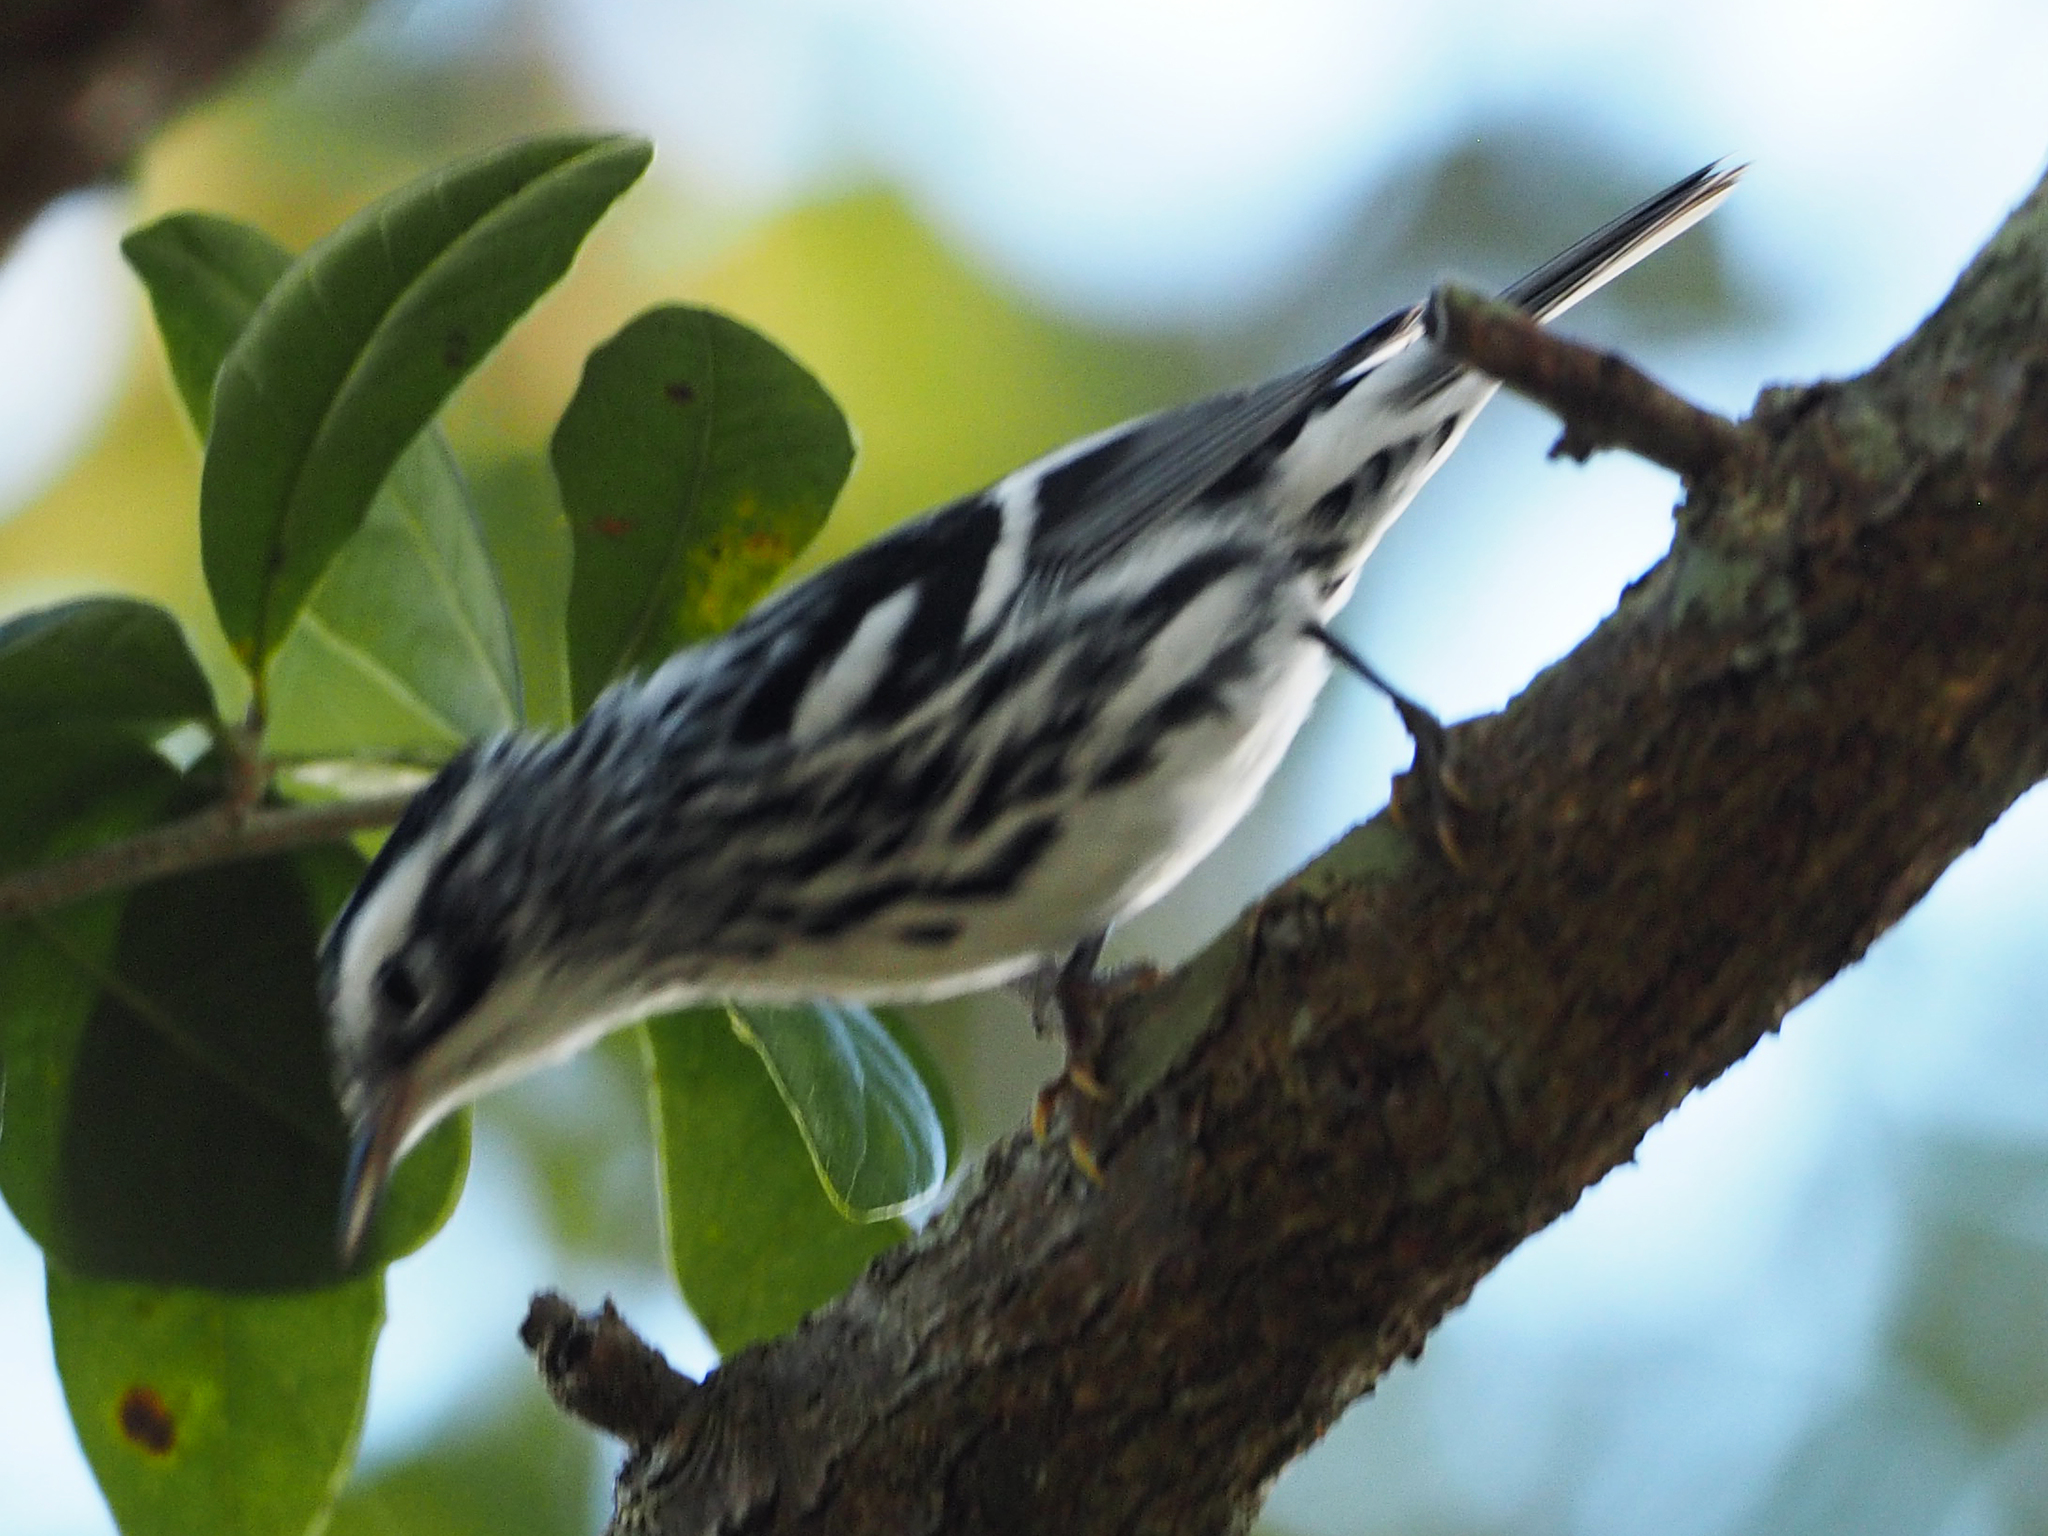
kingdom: Animalia
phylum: Chordata
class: Aves
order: Passeriformes
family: Parulidae
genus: Mniotilta
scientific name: Mniotilta varia
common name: Black-and-white warbler
